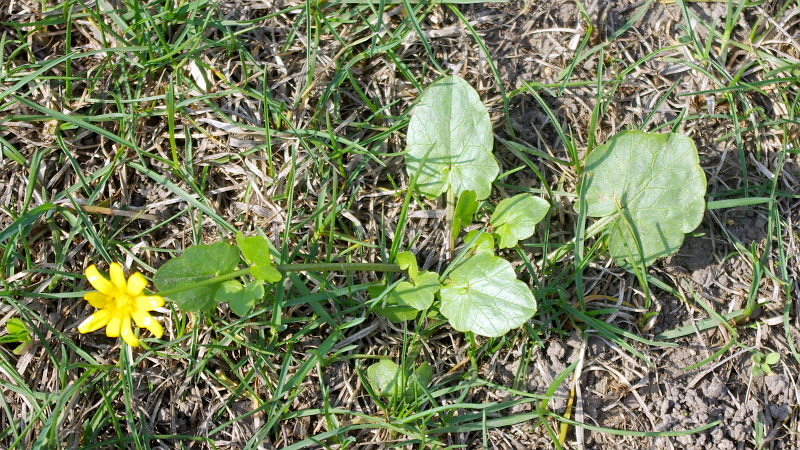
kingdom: Plantae
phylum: Tracheophyta
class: Magnoliopsida
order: Ranunculales
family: Ranunculaceae
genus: Ficaria
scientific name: Ficaria verna
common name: Lesser celandine
